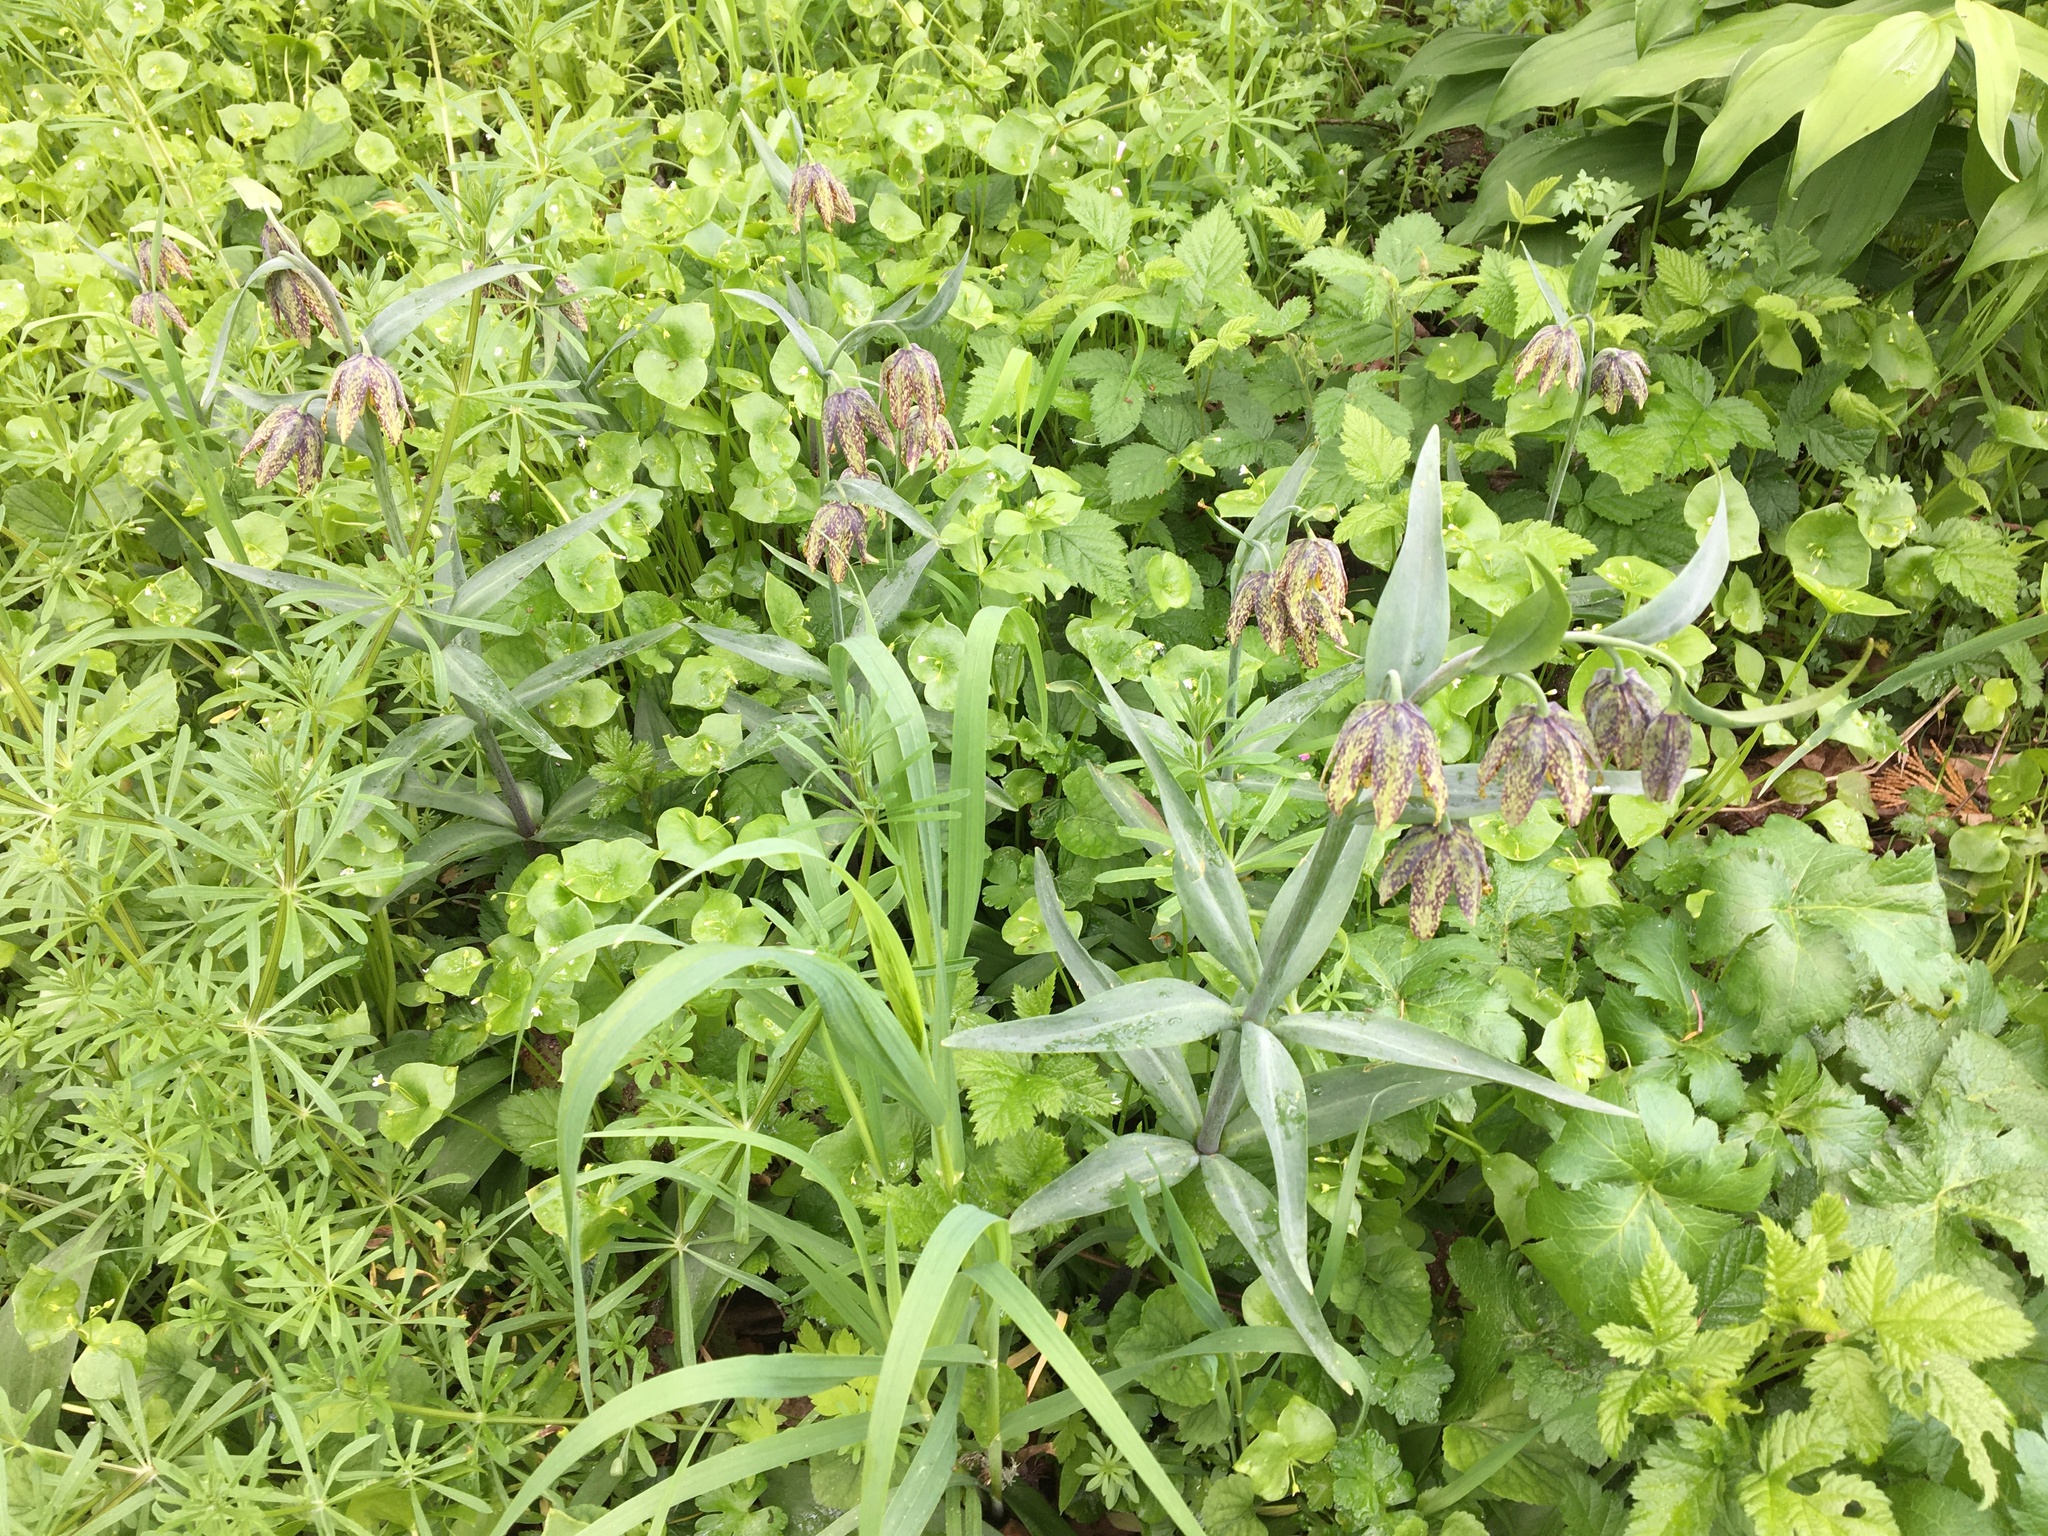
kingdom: Plantae
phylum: Tracheophyta
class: Liliopsida
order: Liliales
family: Liliaceae
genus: Fritillaria
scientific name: Fritillaria affinis
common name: Ojai fritillary
